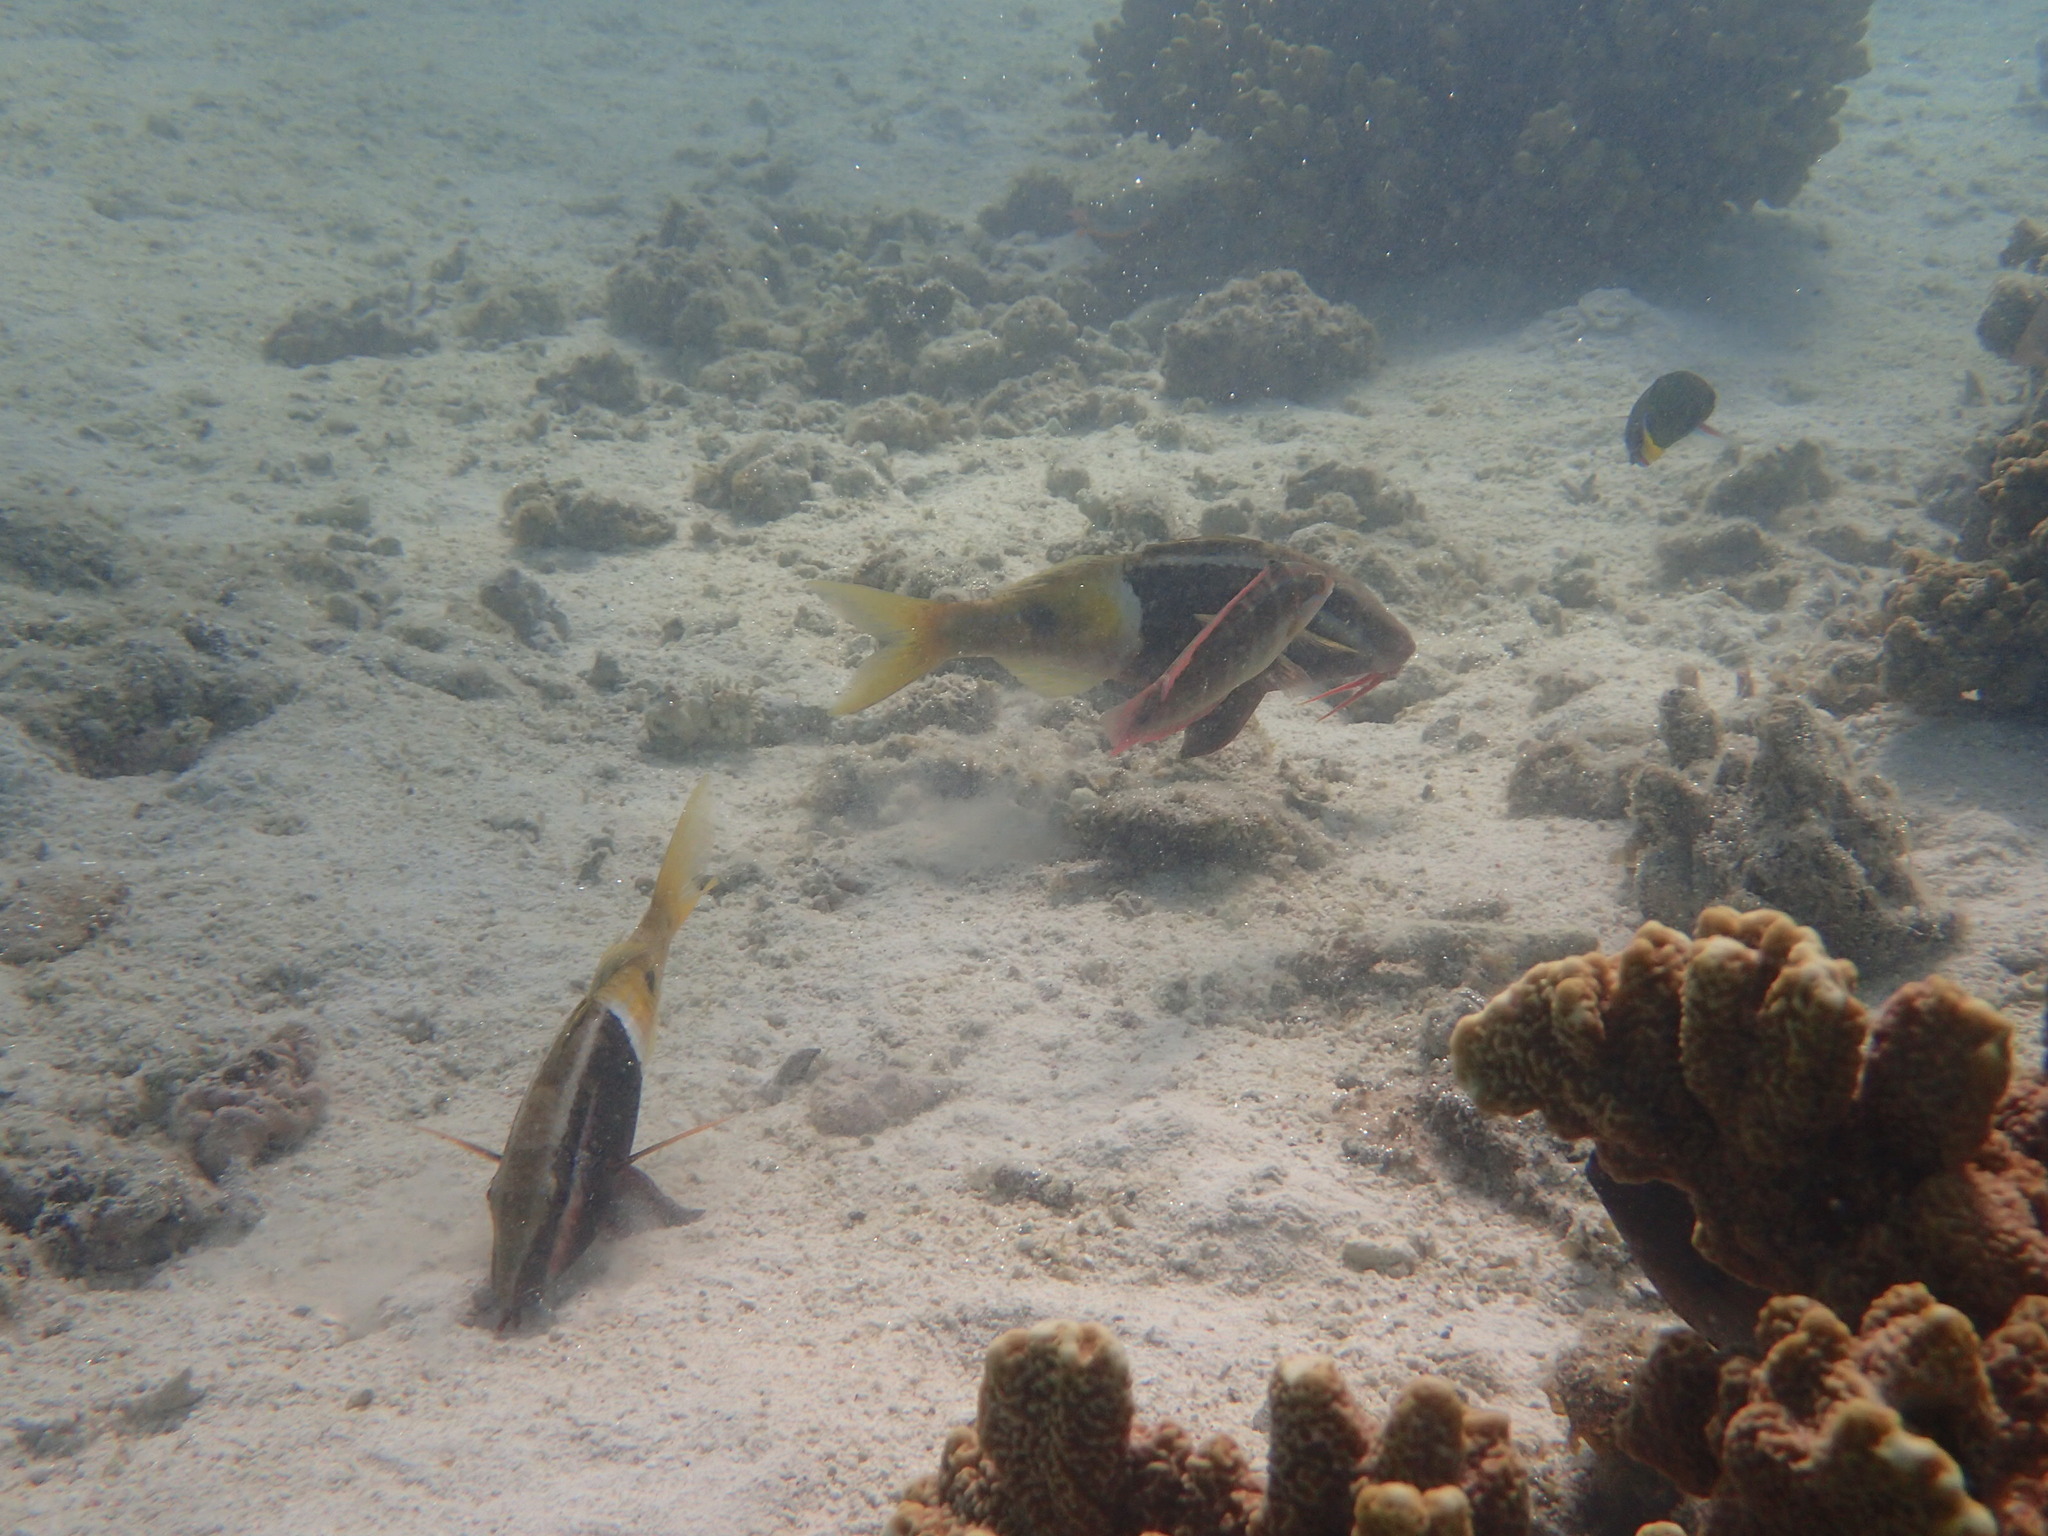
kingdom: Animalia
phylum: Chordata
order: Perciformes
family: Mullidae
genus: Parupeneus
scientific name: Parupeneus barberinoides
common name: Half-and-half goatfish
